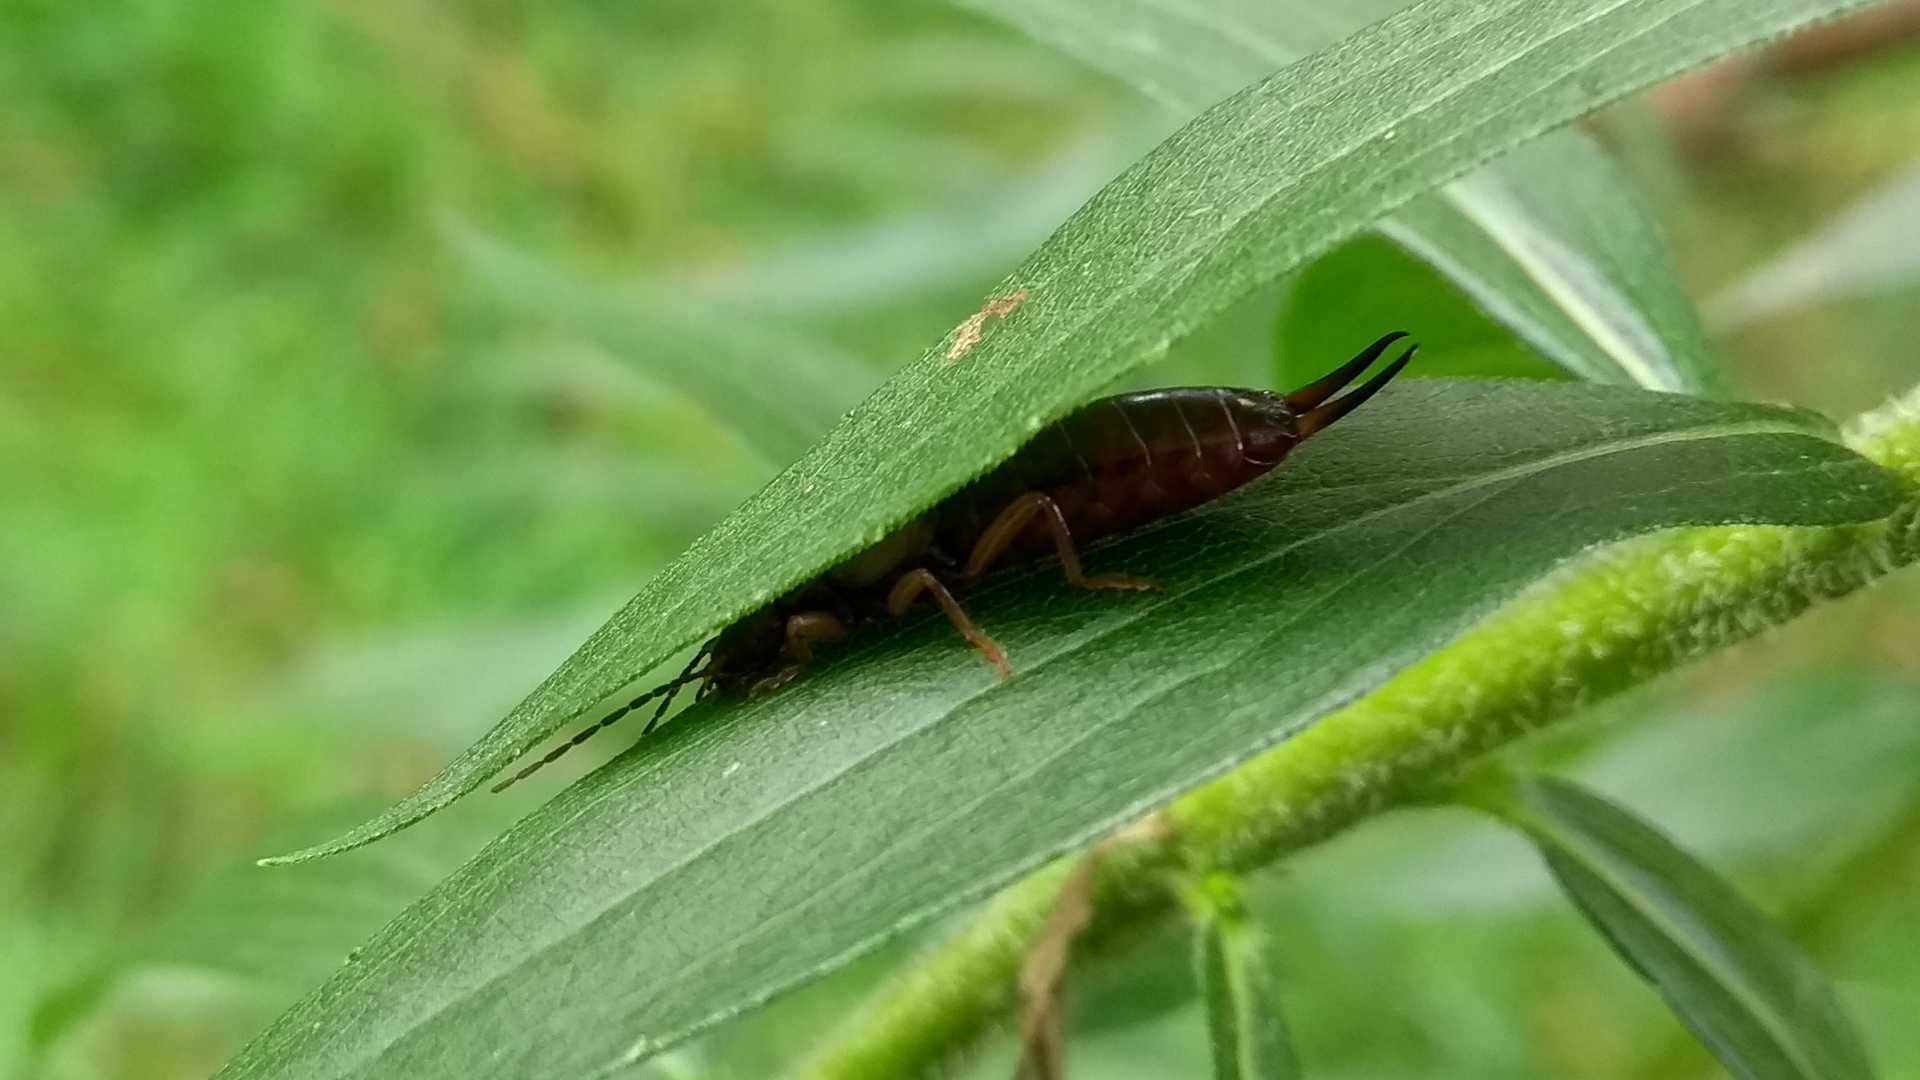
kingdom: Animalia
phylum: Arthropoda
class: Insecta
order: Dermaptera
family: Forficulidae
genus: Forficula
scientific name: Forficula
